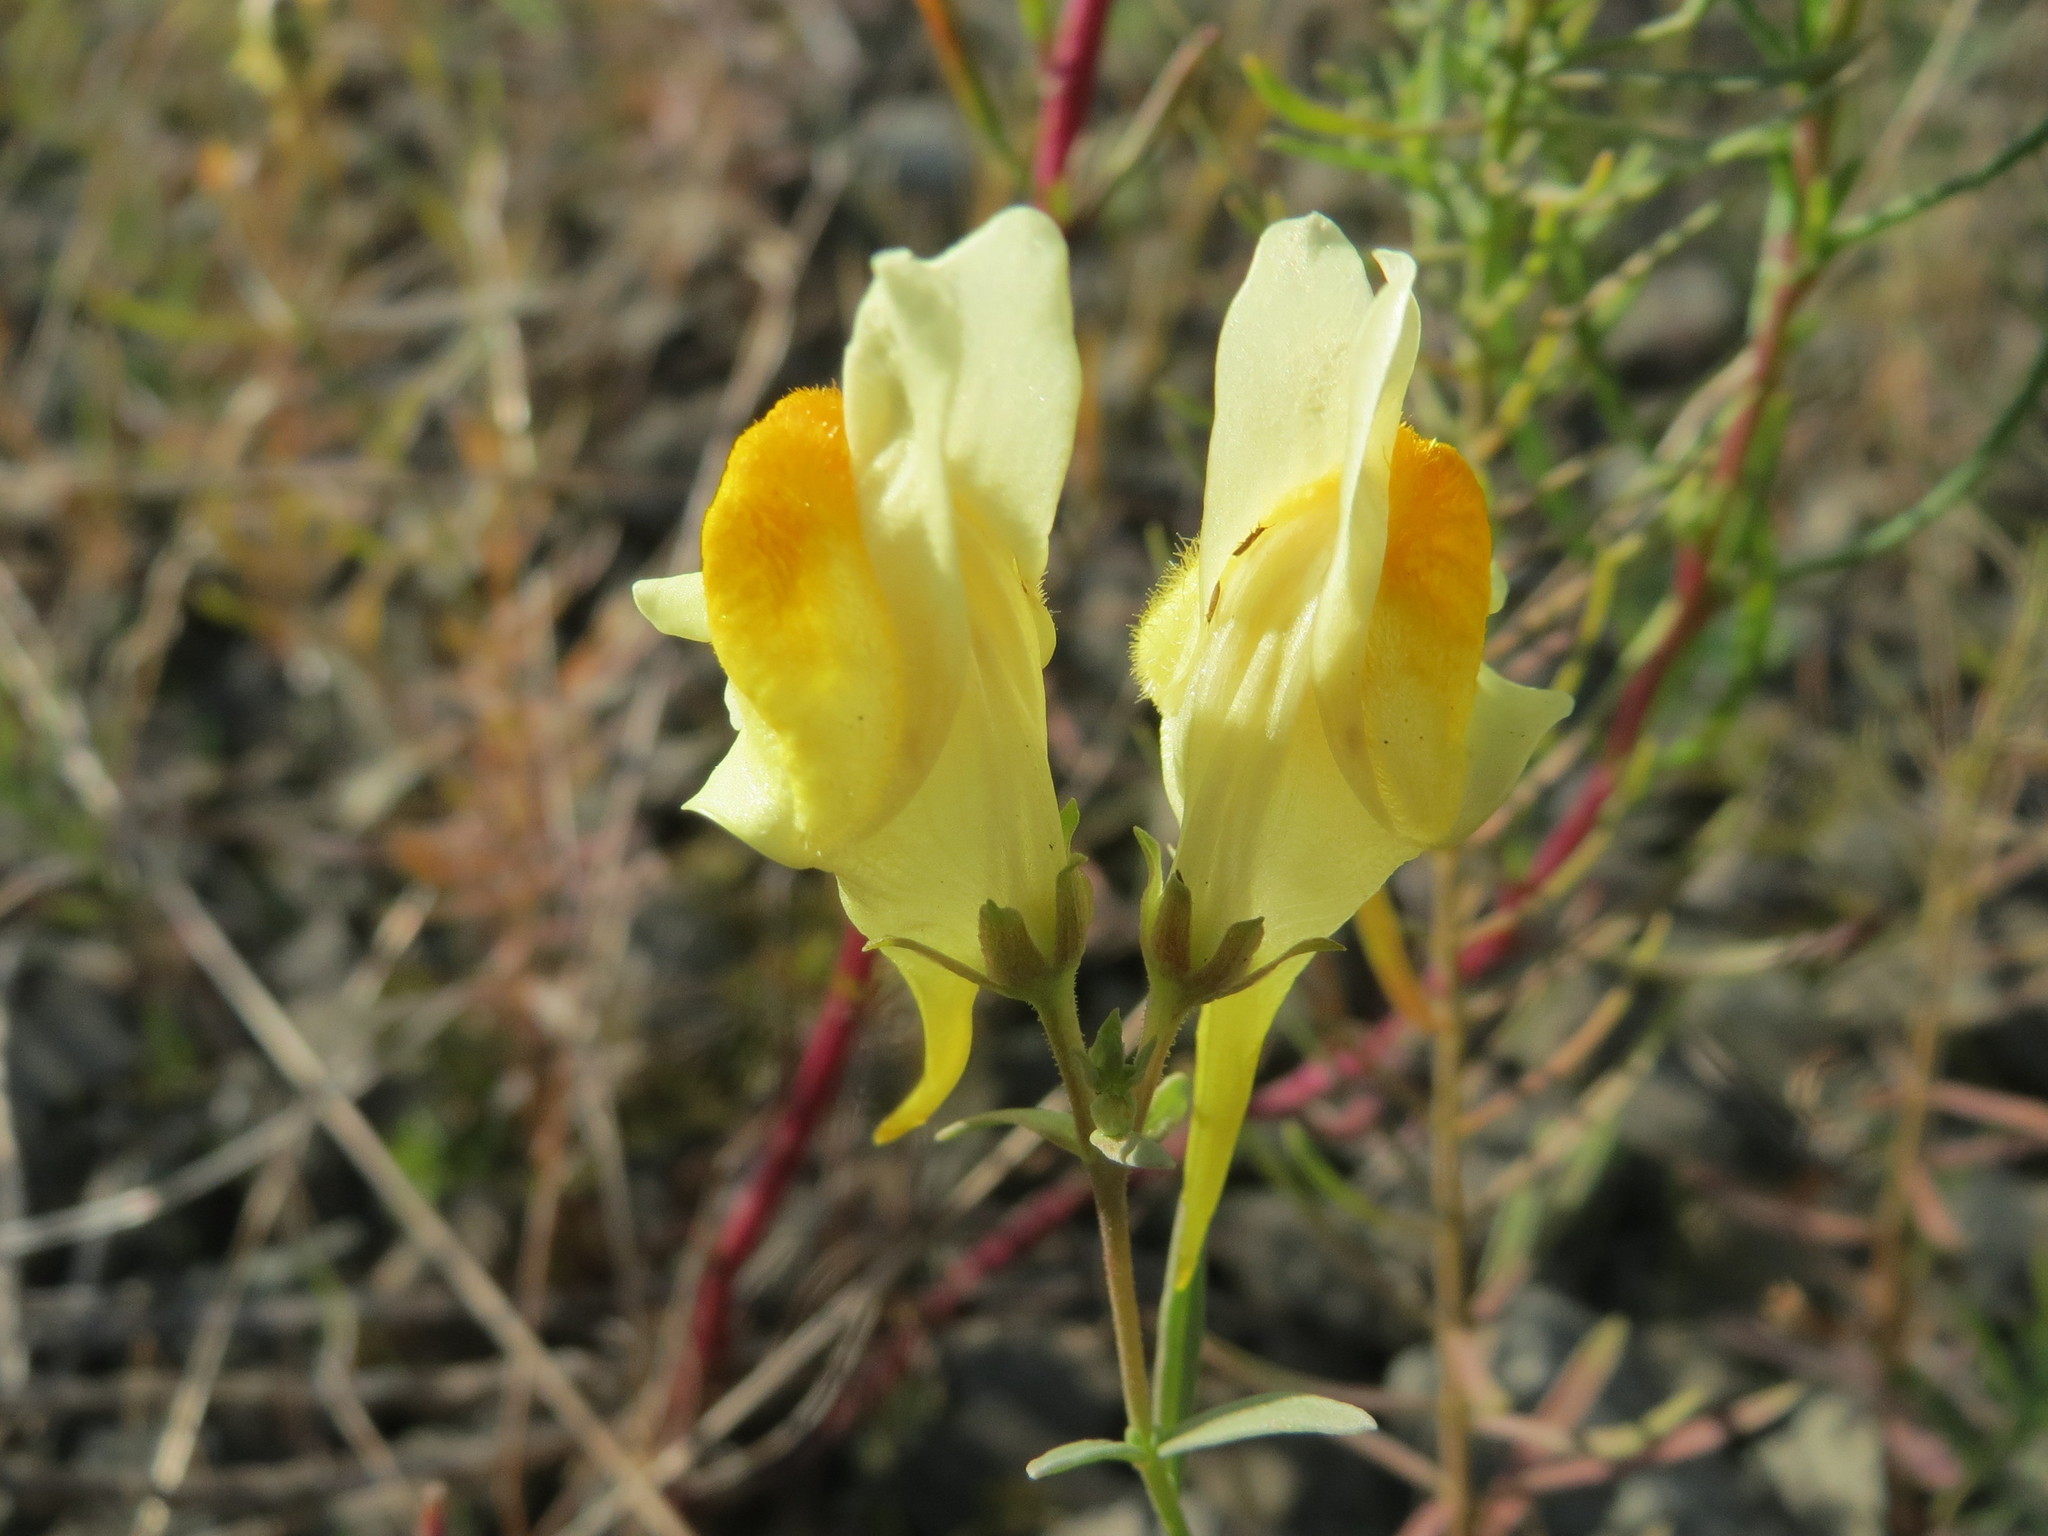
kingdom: Plantae
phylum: Tracheophyta
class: Magnoliopsida
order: Lamiales
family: Plantaginaceae
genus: Linaria
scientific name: Linaria vulgaris
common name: Butter and eggs
